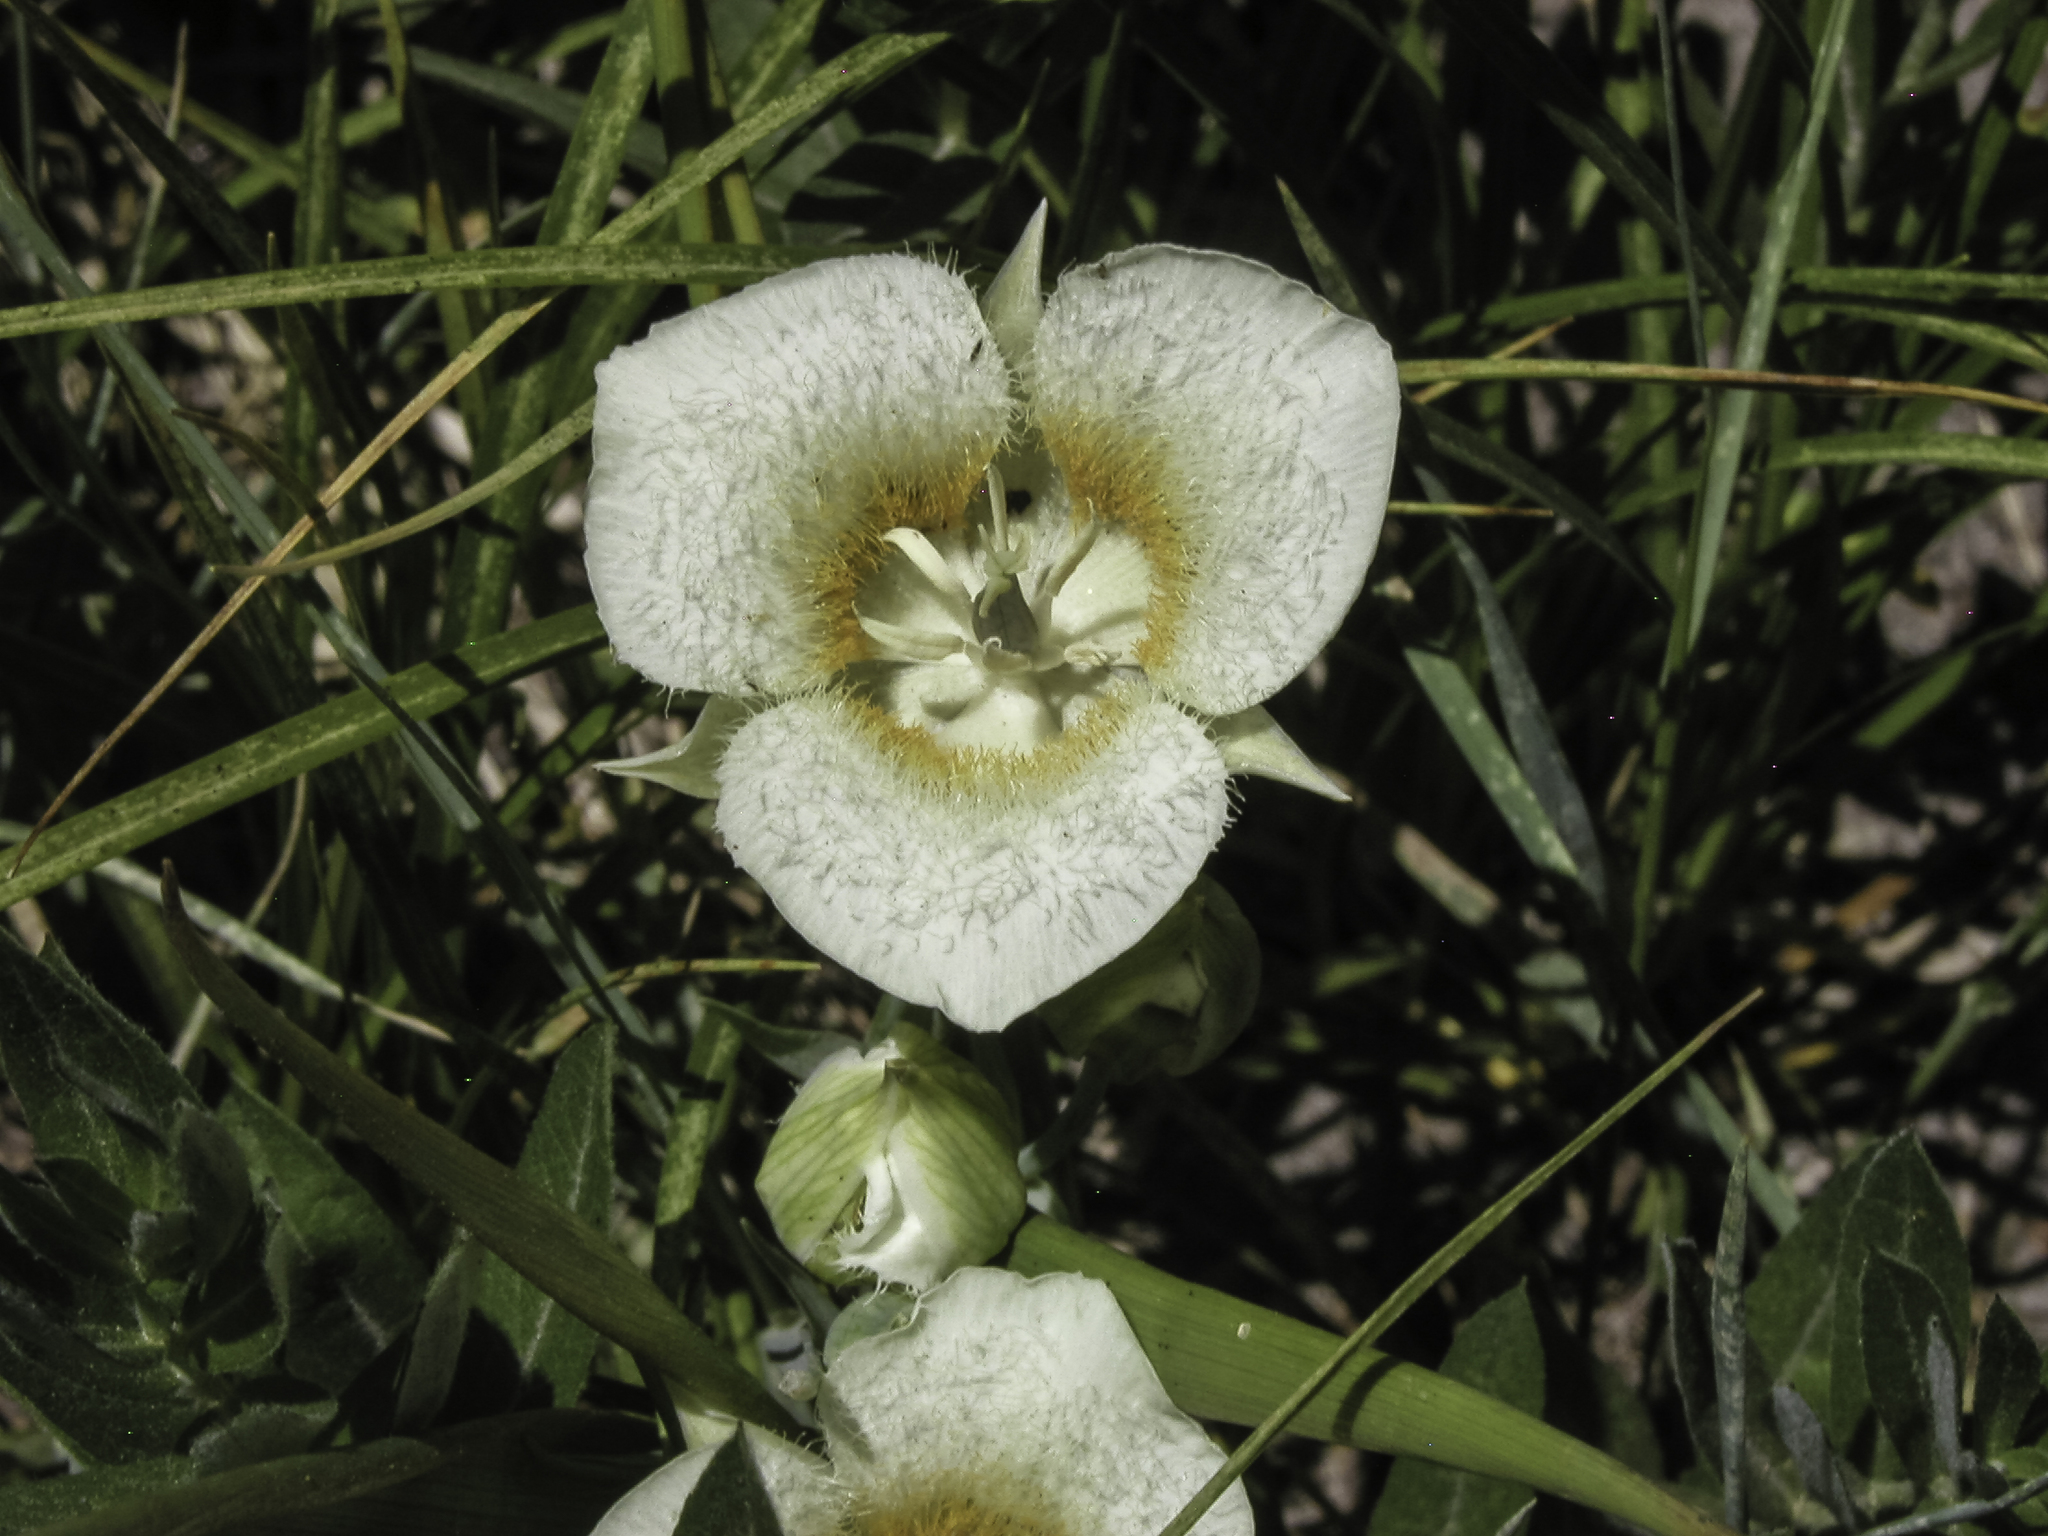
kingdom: Plantae
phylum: Tracheophyta
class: Liliopsida
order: Liliales
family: Liliaceae
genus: Calochortus
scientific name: Calochortus subalpinus
